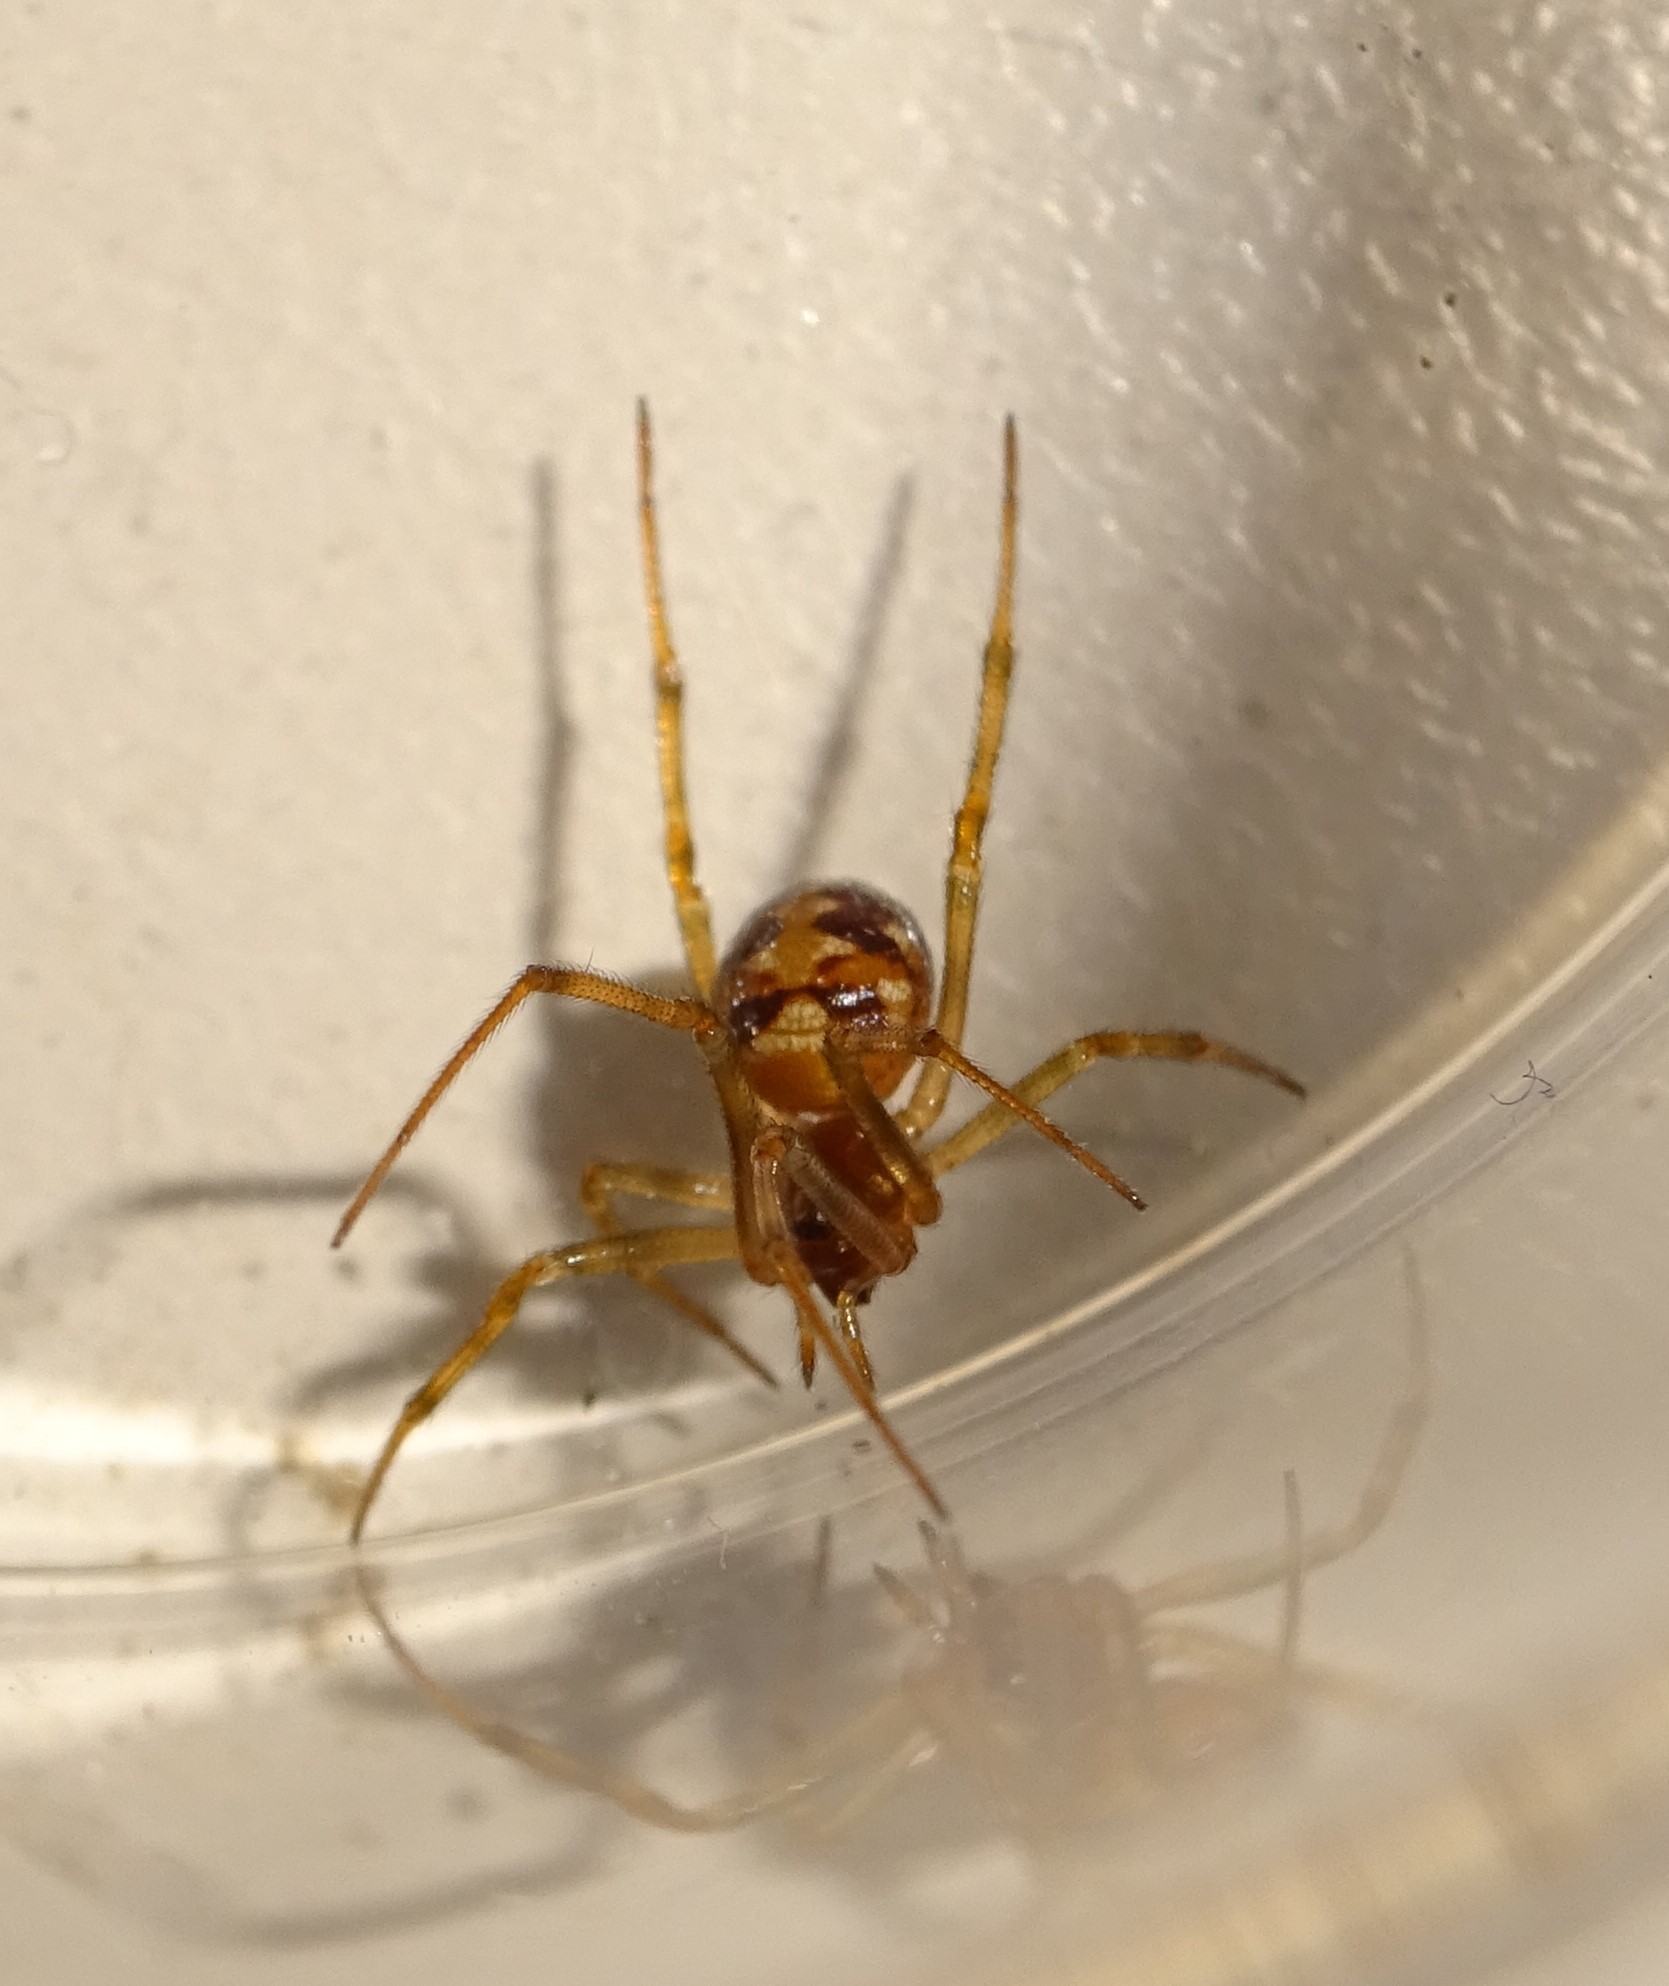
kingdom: Animalia
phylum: Arthropoda
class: Arachnida
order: Araneae
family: Theridiidae
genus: Steatoda
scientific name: Steatoda triangulosa
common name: Triangulate bud spider
